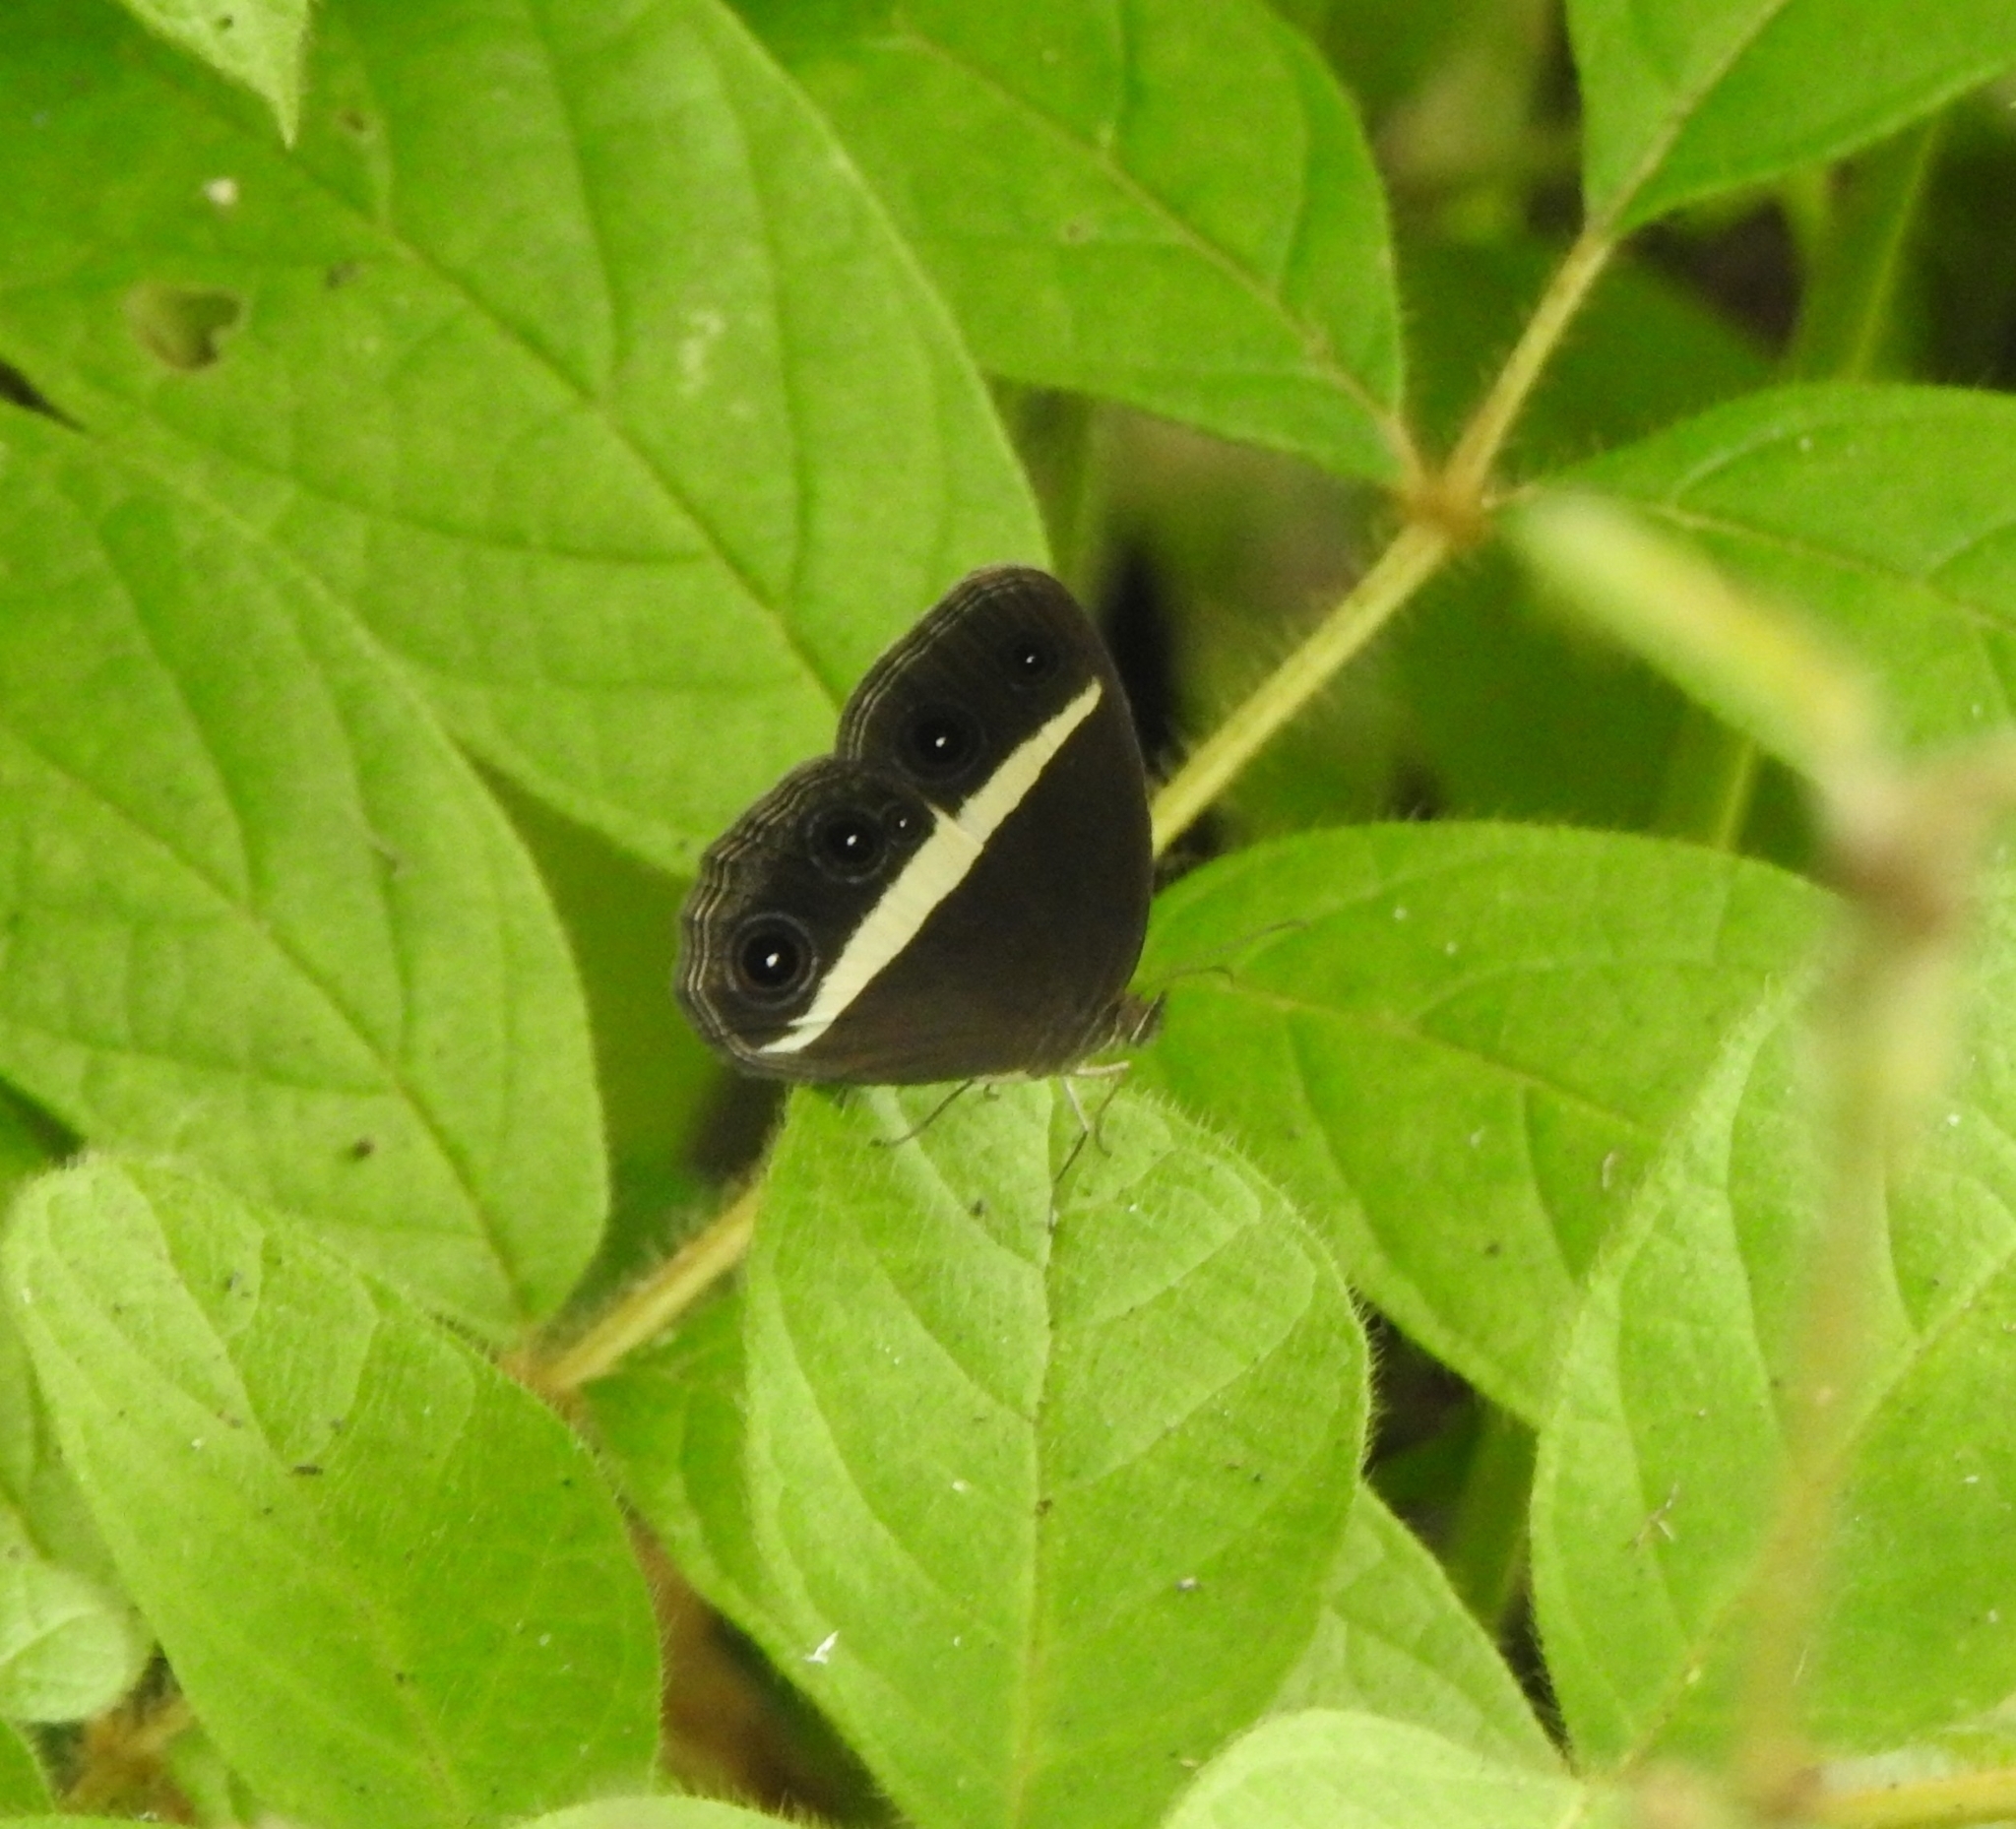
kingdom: Animalia
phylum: Arthropoda
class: Insecta
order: Lepidoptera
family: Nymphalidae
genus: Orsotriaena
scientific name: Orsotriaena medus
